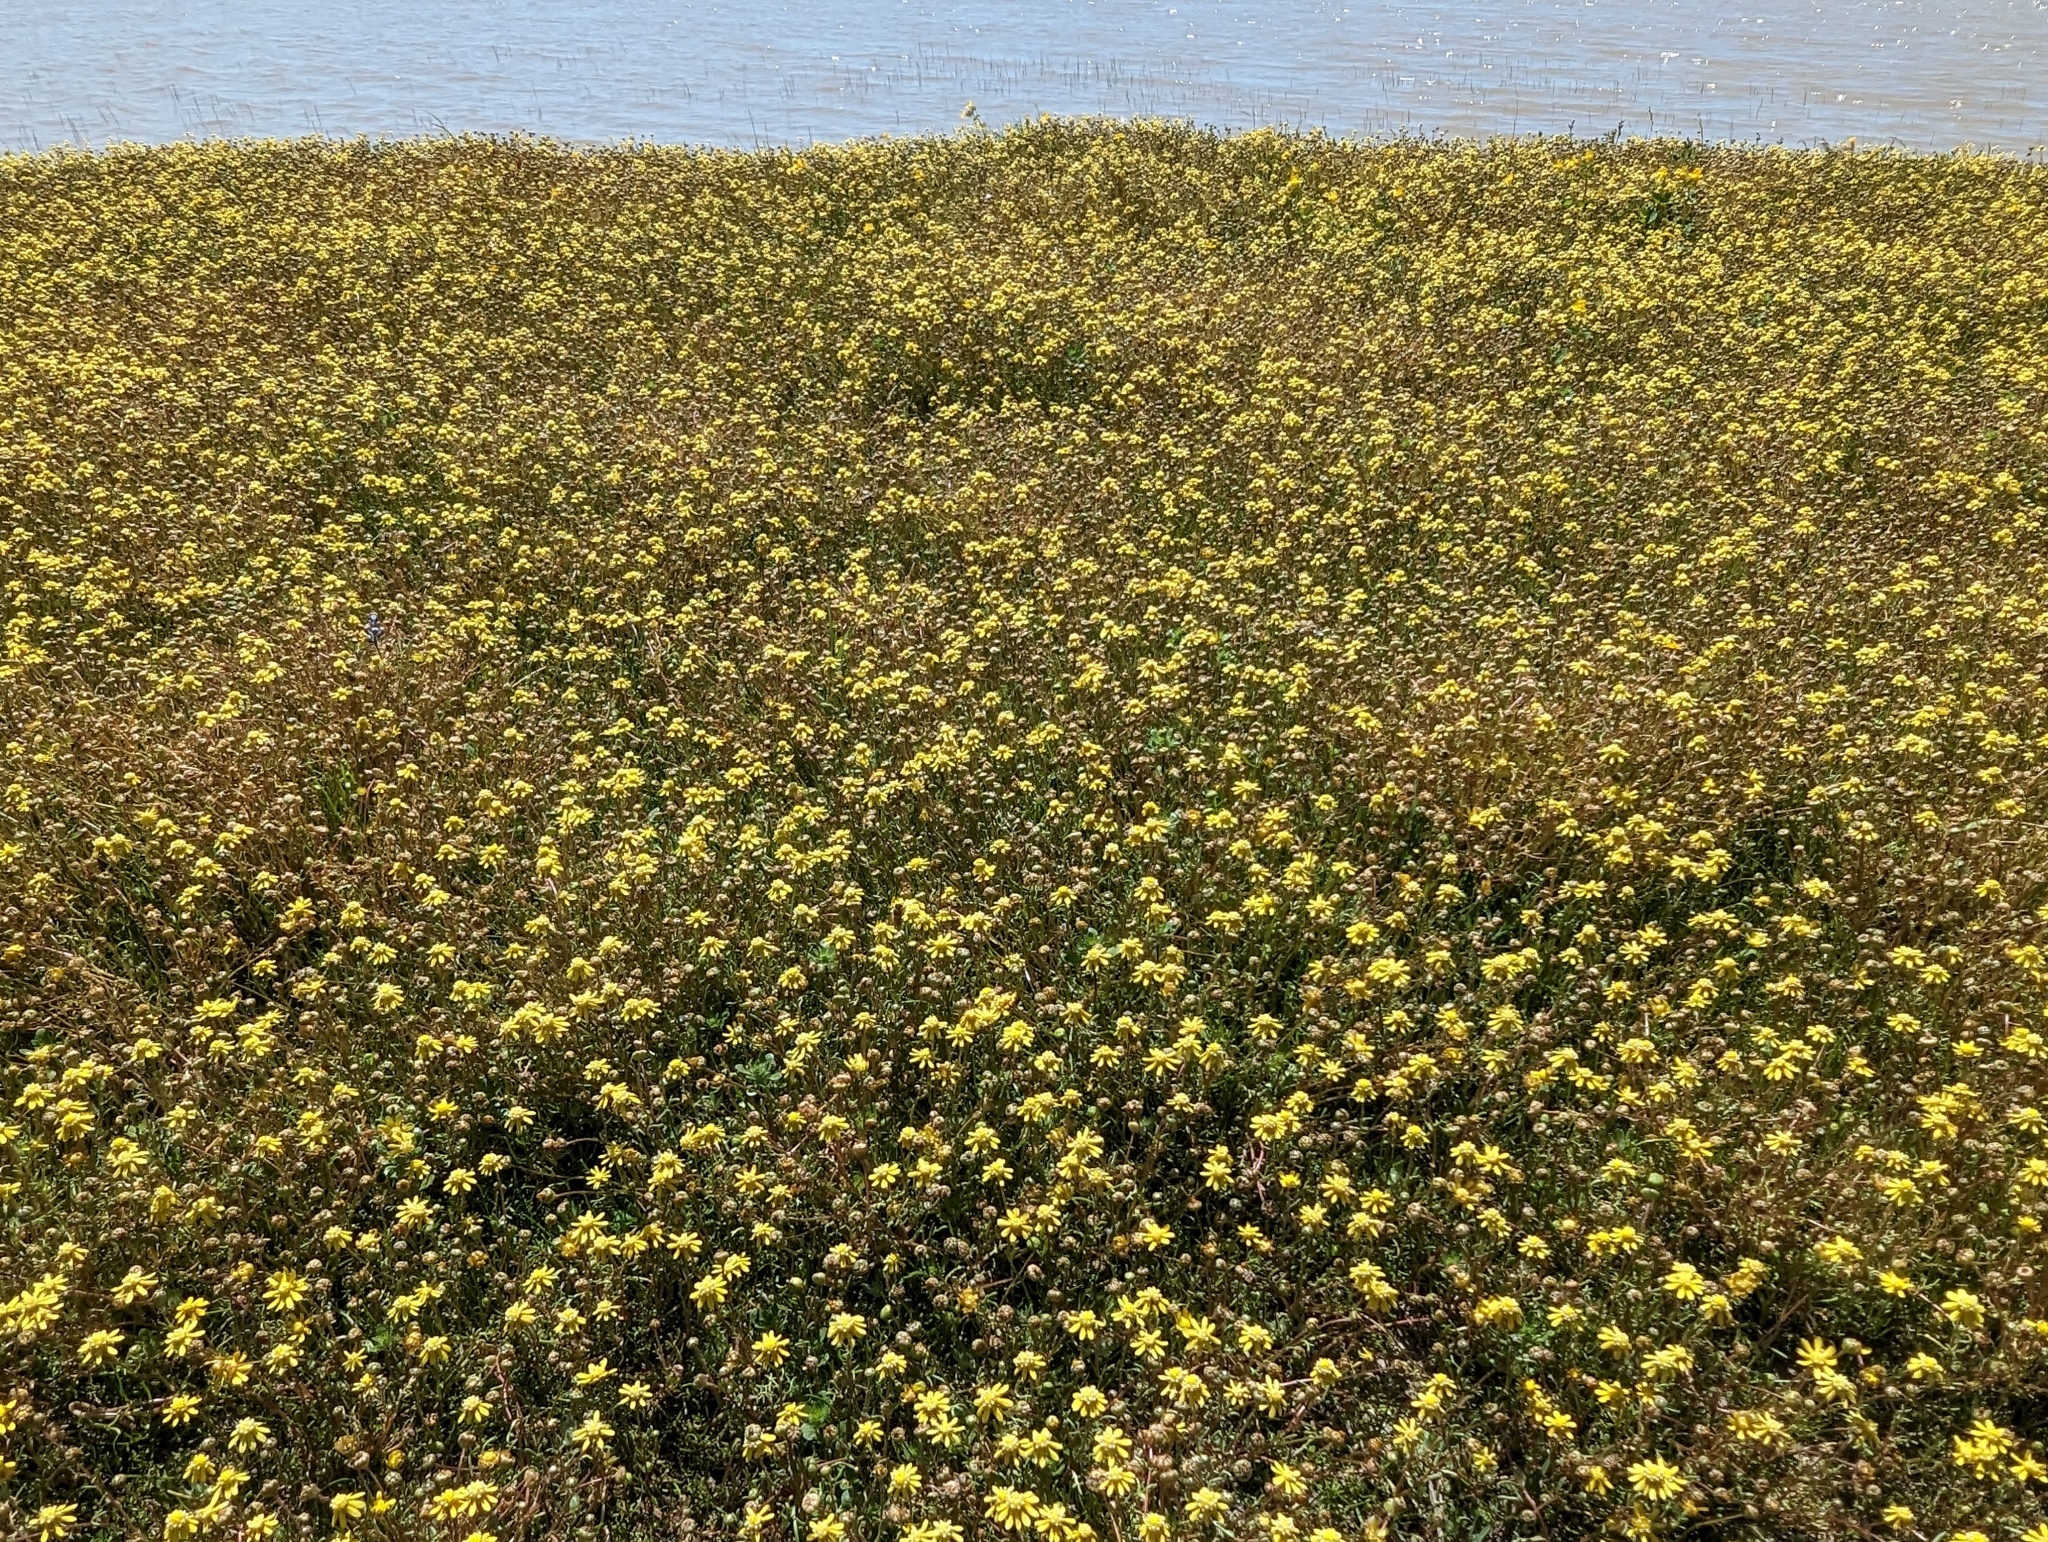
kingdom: Plantae
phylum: Tracheophyta
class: Magnoliopsida
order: Asterales
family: Asteraceae
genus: Blennosperma
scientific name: Blennosperma nanum
